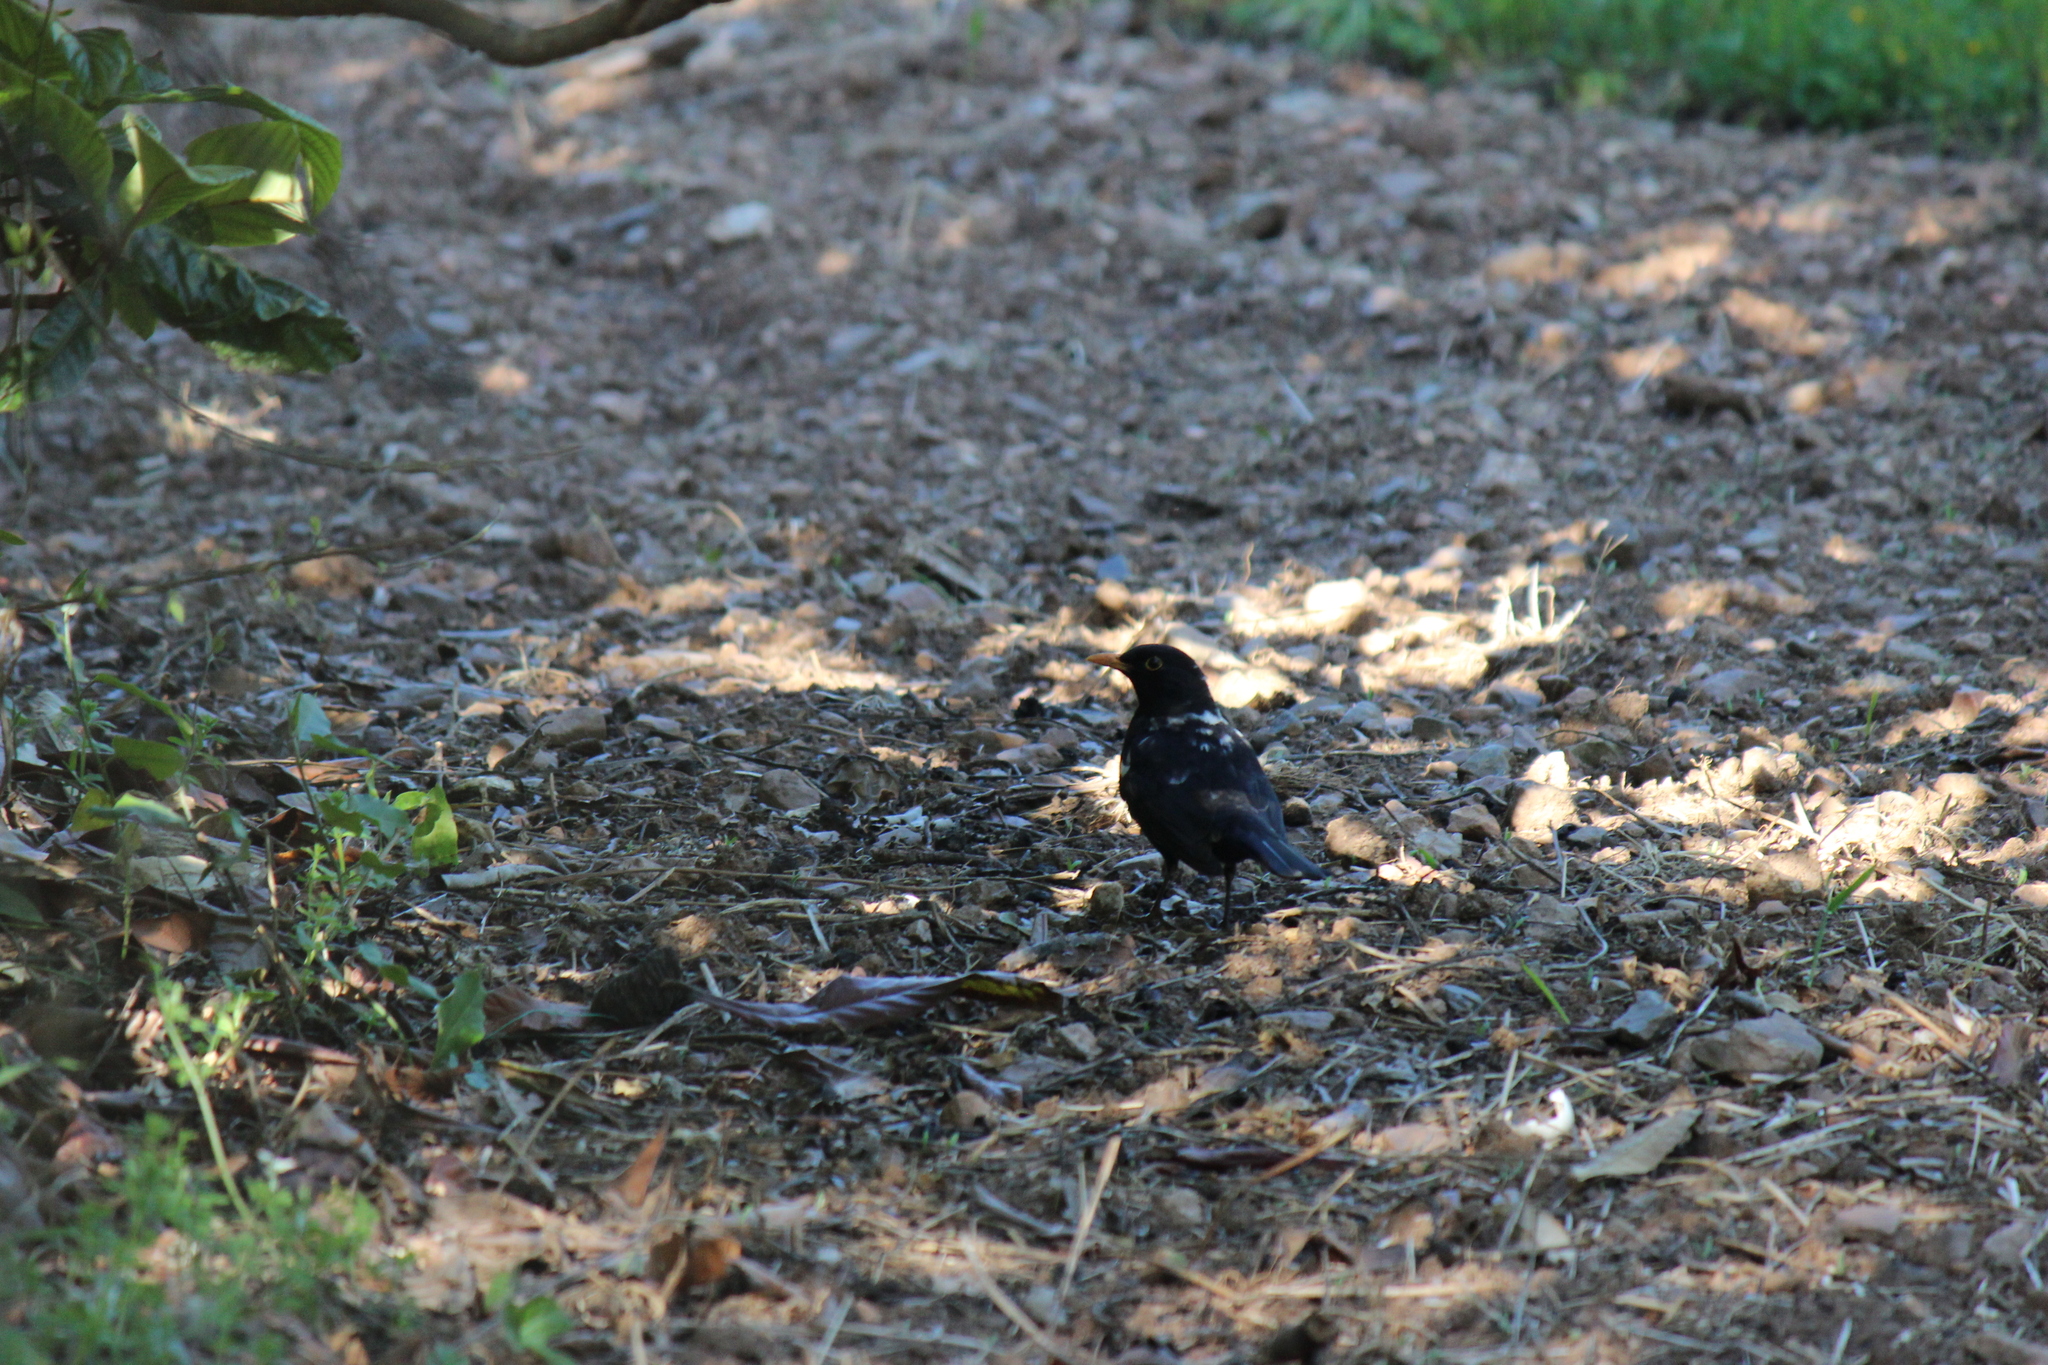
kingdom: Animalia
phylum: Chordata
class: Aves
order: Passeriformes
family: Turdidae
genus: Turdus
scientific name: Turdus merula
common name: Common blackbird
